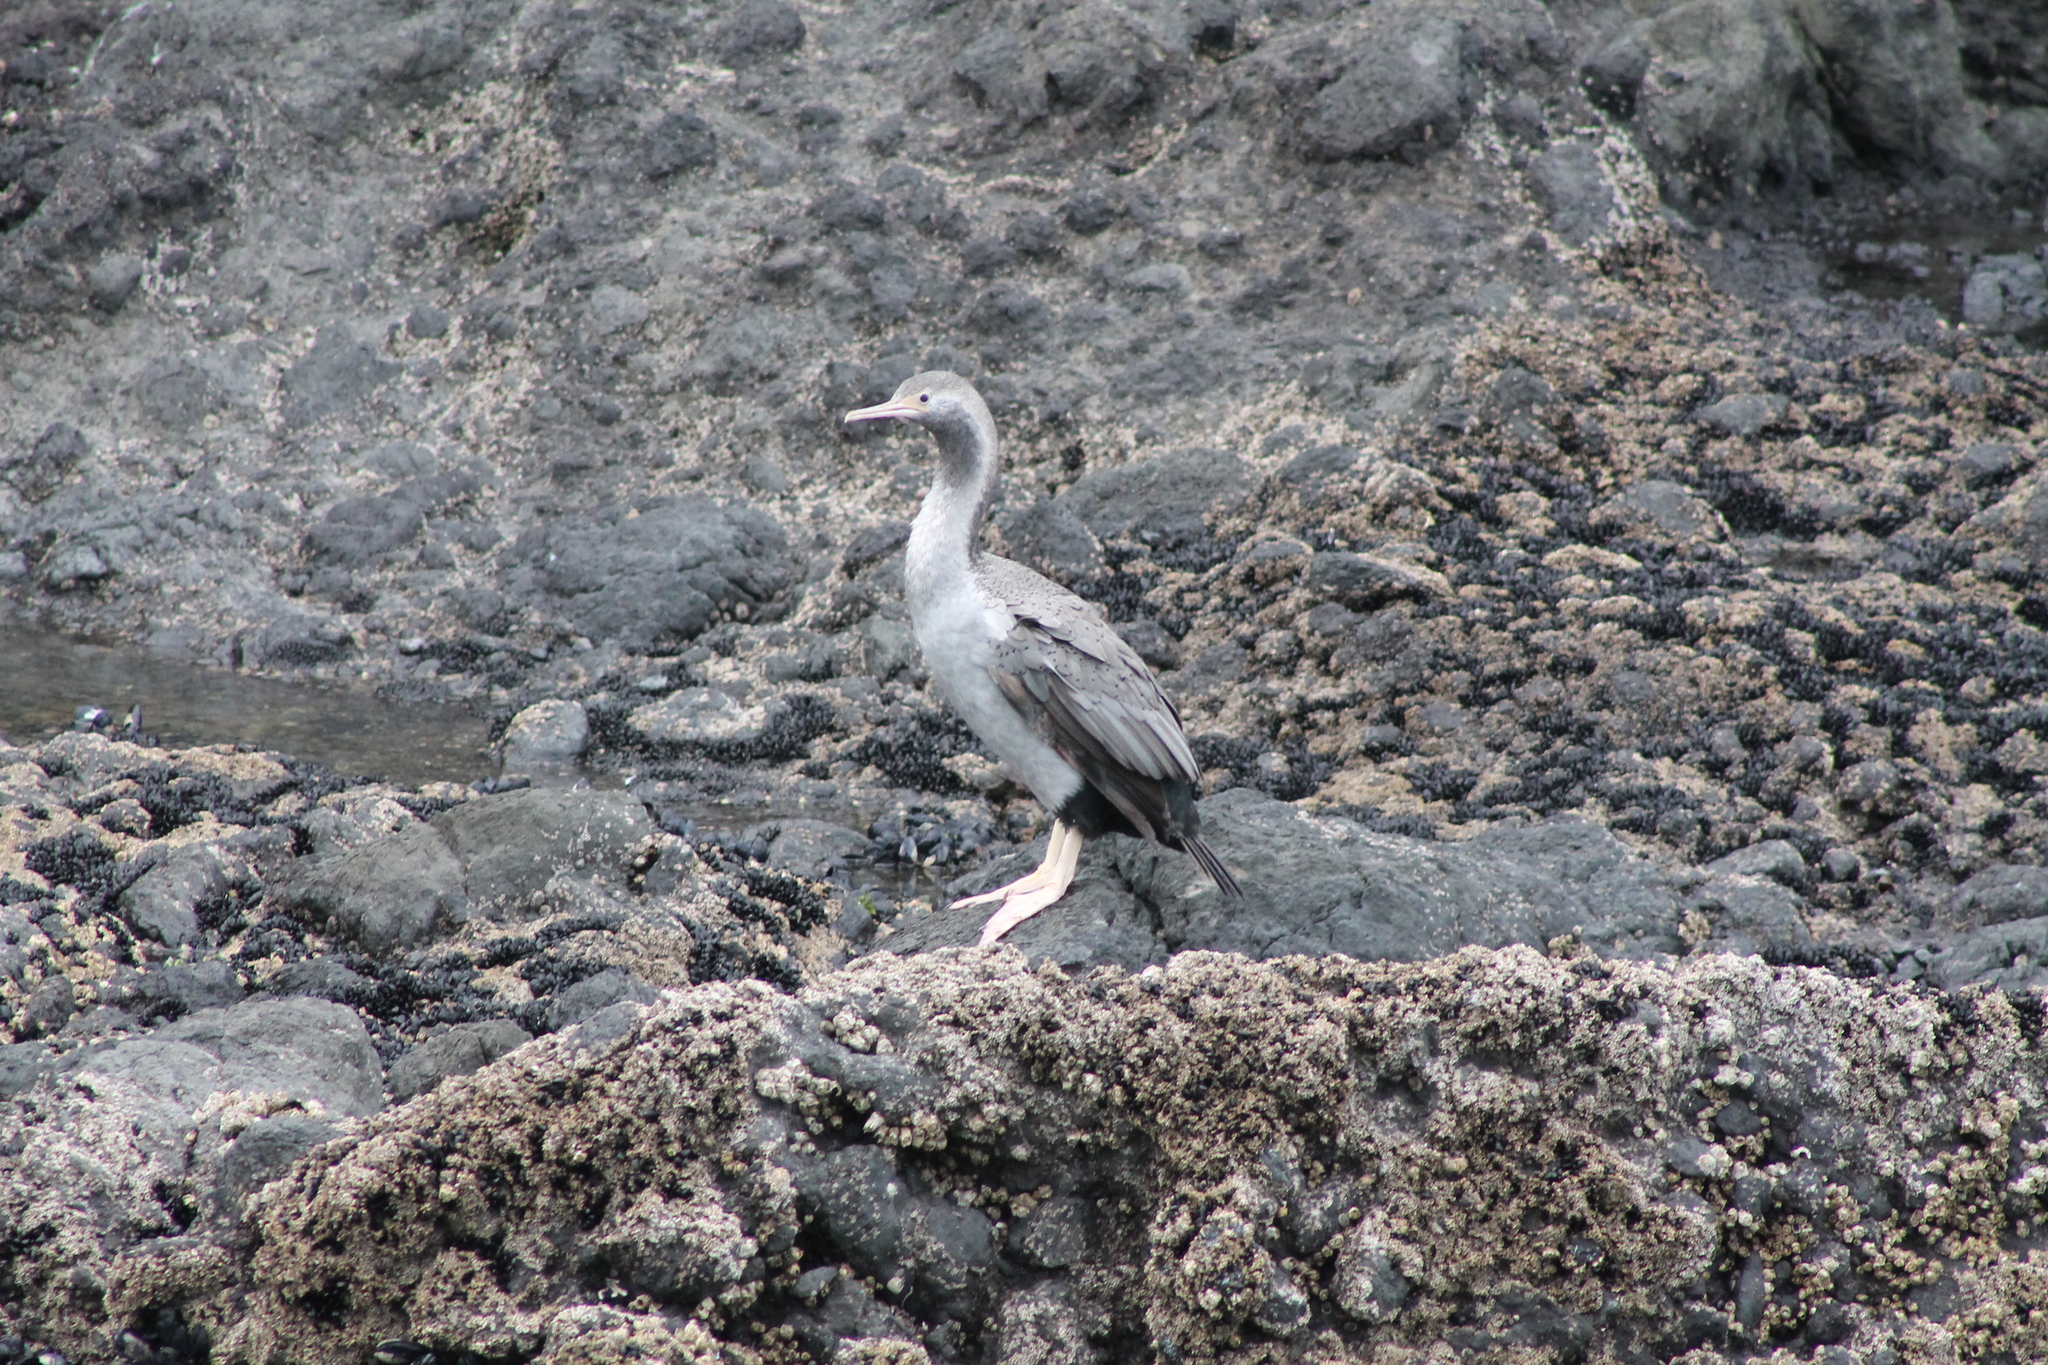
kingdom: Animalia
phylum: Chordata
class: Aves
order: Suliformes
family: Phalacrocoracidae
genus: Phalacrocorax
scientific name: Phalacrocorax punctatus
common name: Spotted shag
